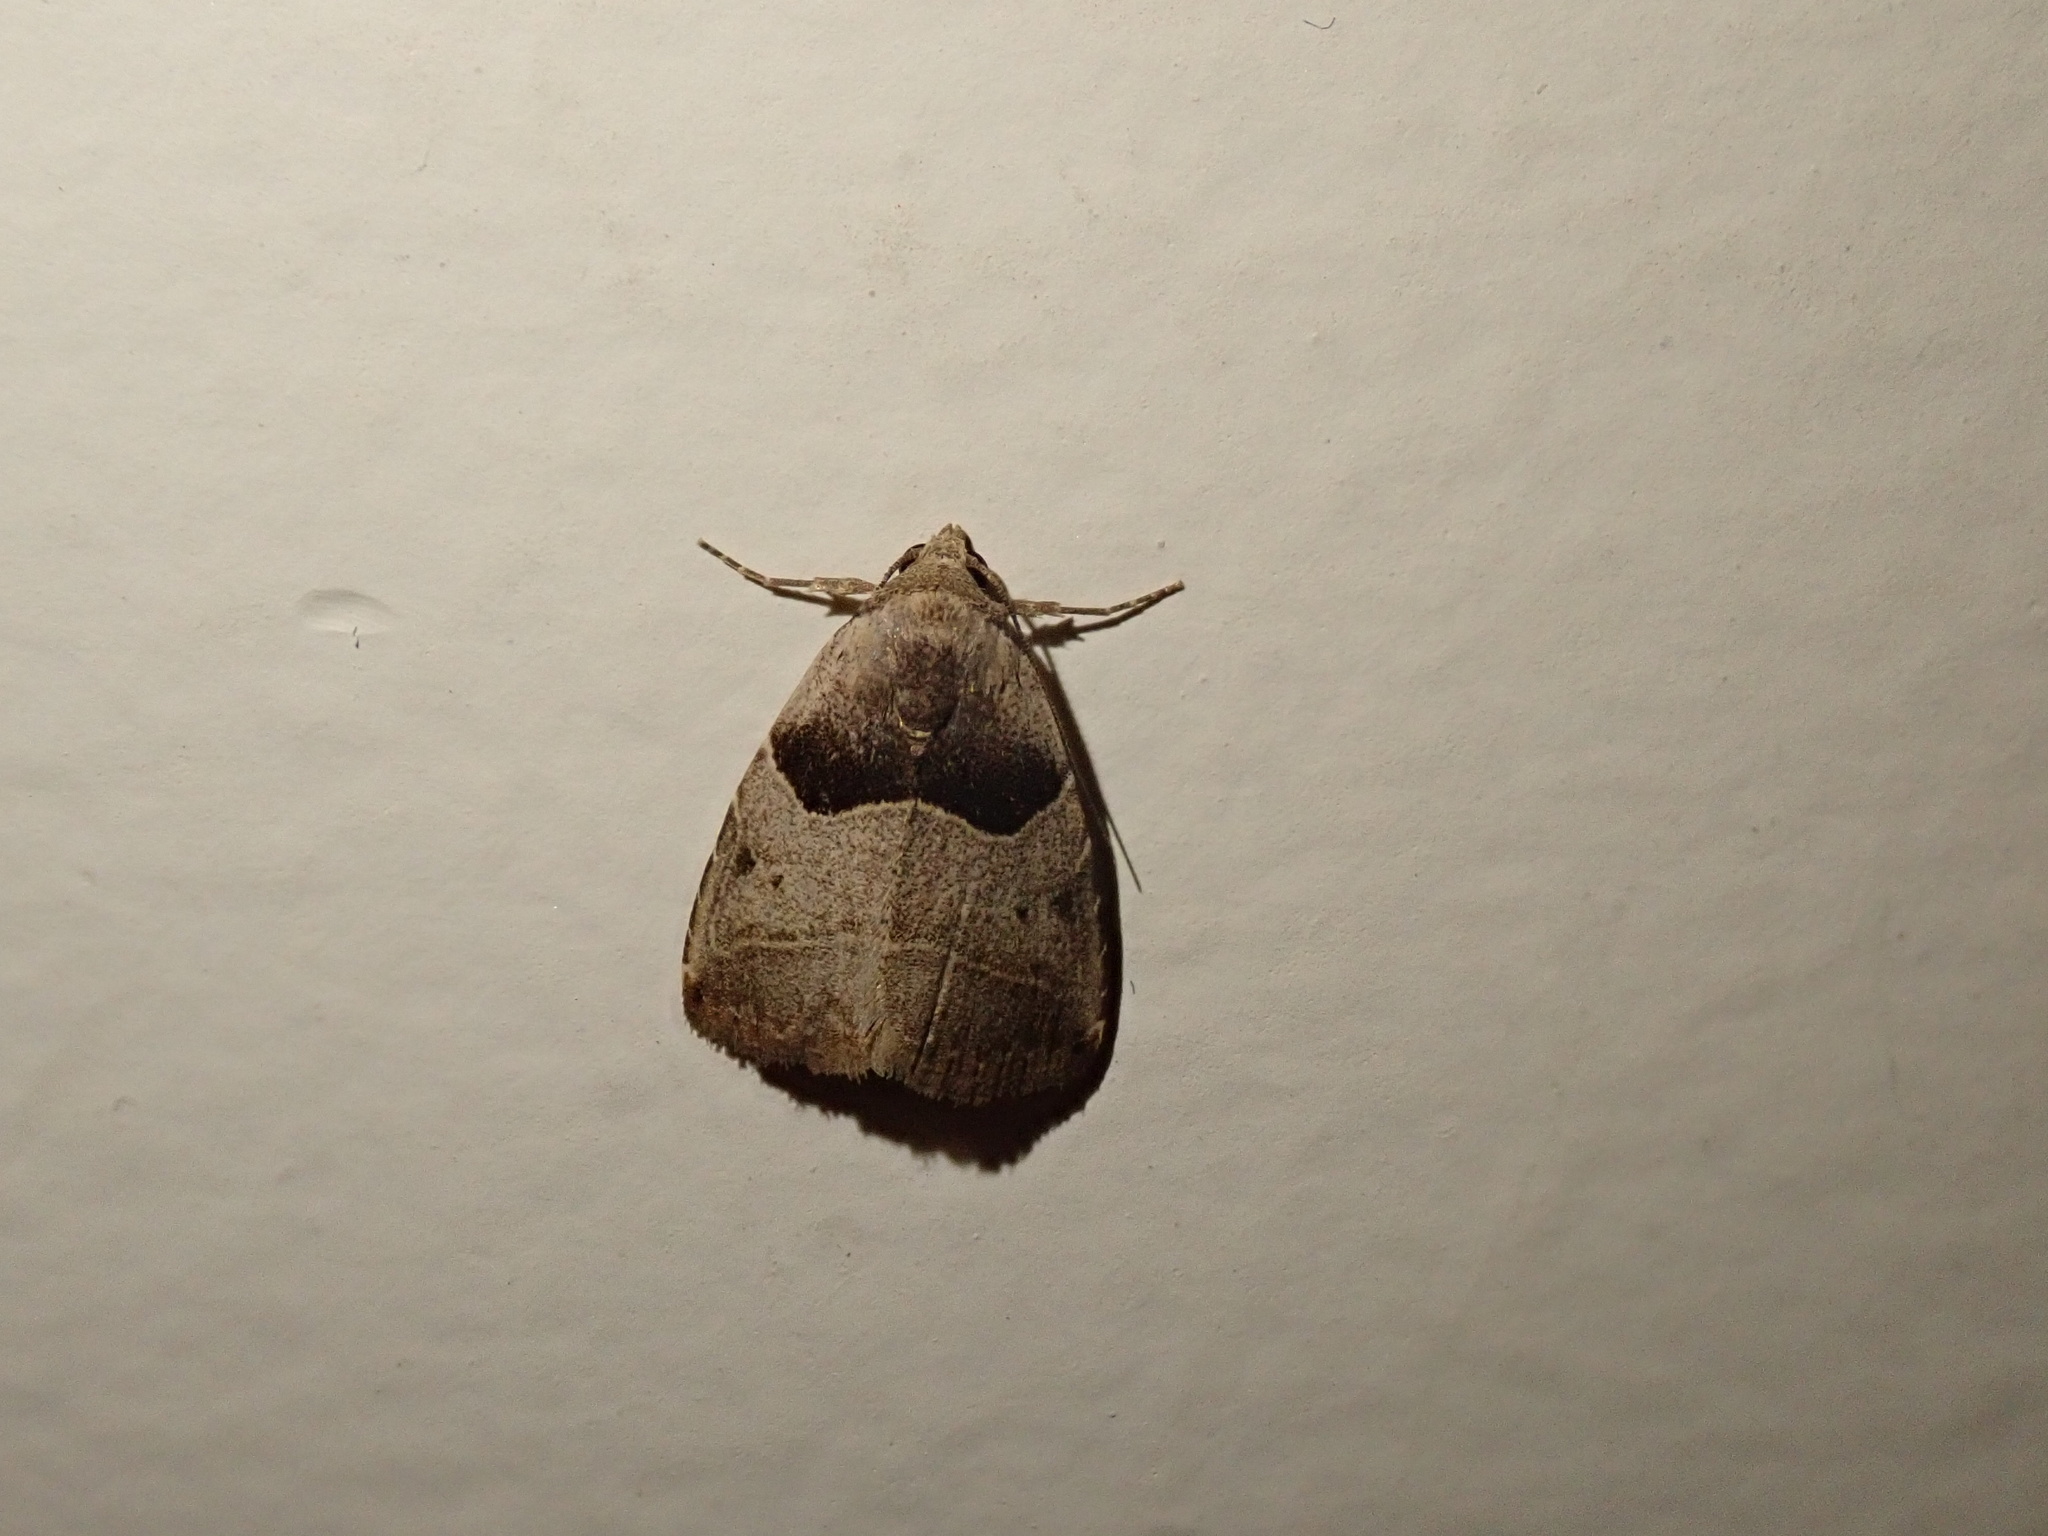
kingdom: Animalia
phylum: Arthropoda
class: Insecta
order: Lepidoptera
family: Erebidae
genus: Rivula
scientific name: Rivula basalis
